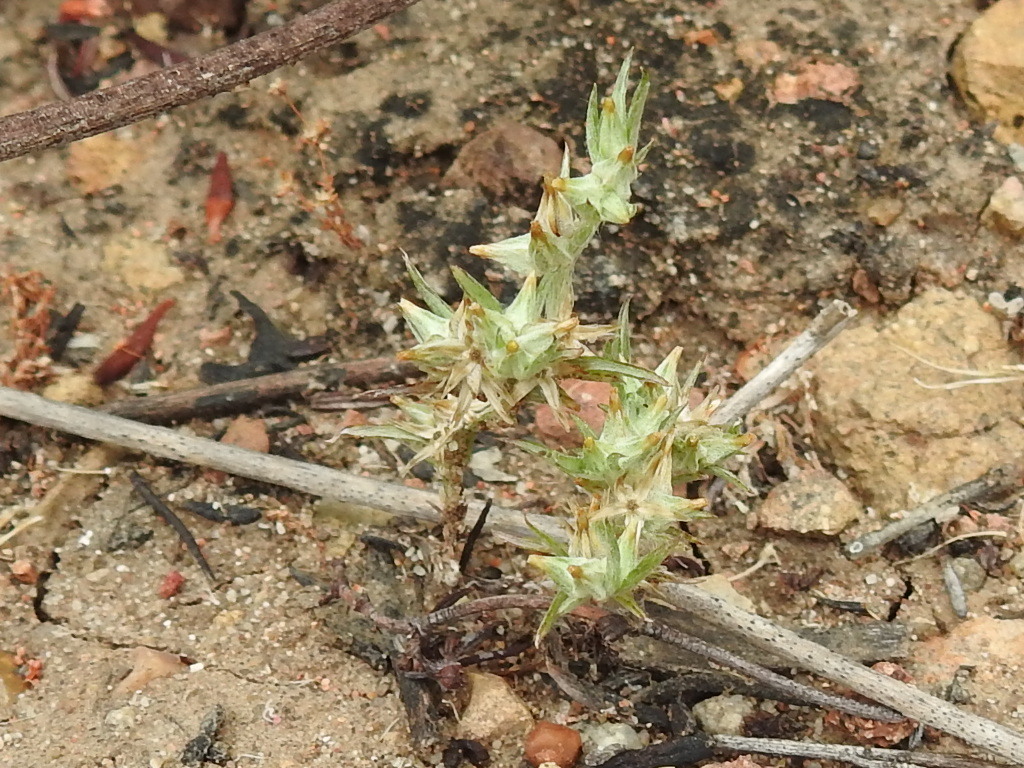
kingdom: Plantae
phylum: Tracheophyta
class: Magnoliopsida
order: Asterales
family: Asteraceae
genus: Logfia
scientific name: Logfia gallica
